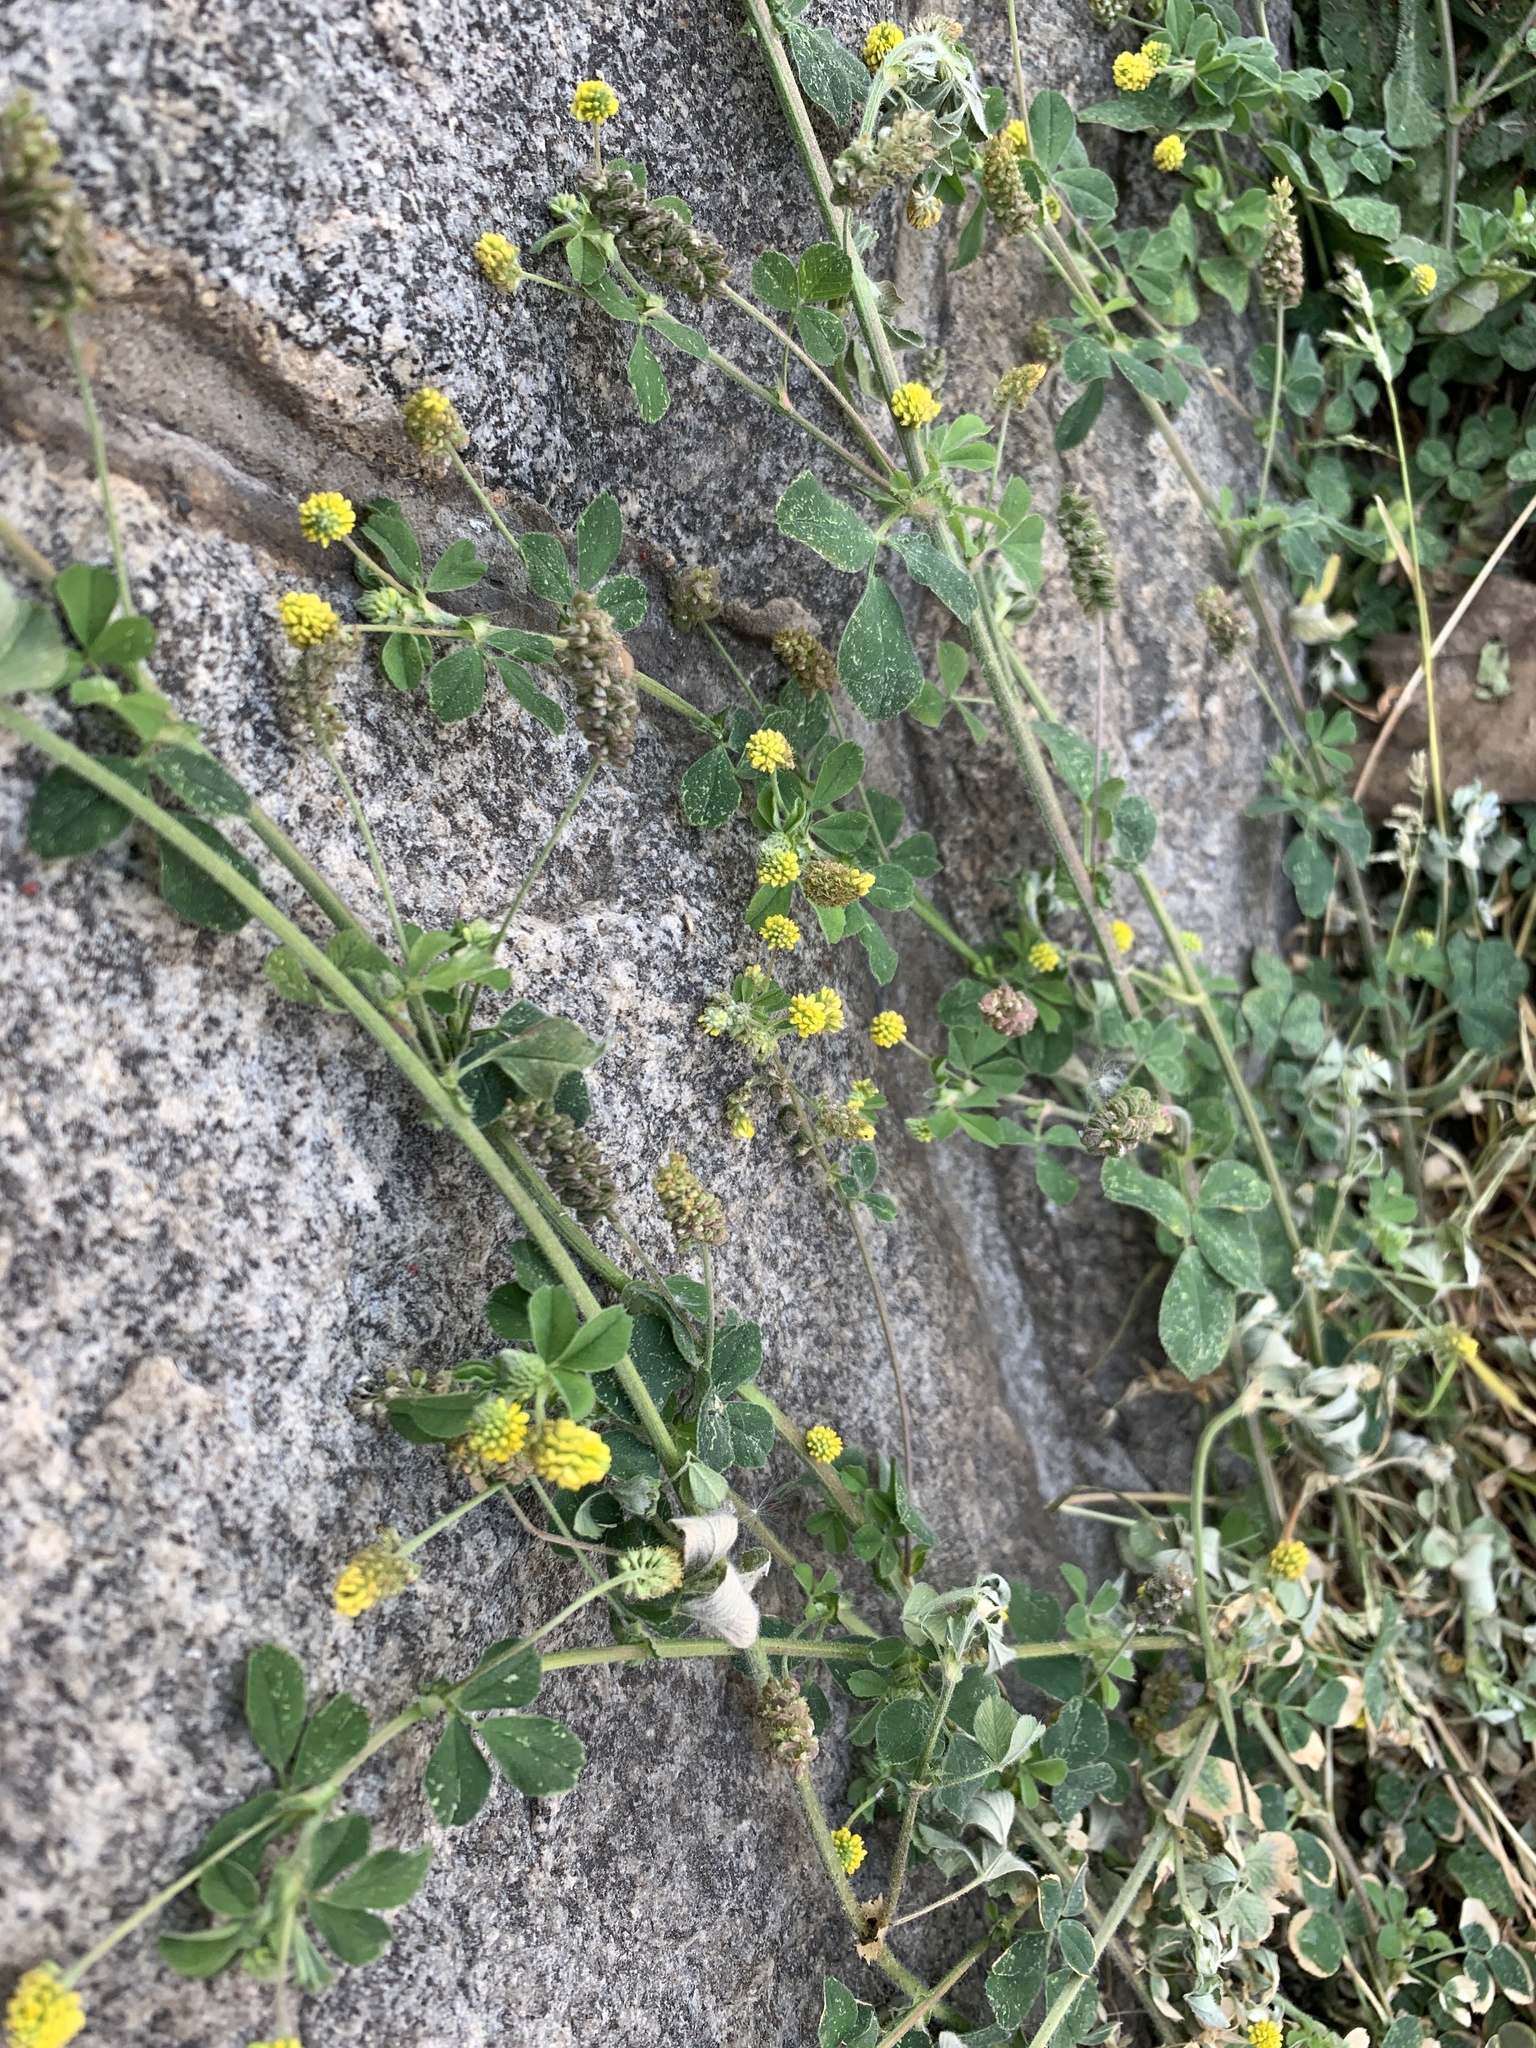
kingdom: Plantae
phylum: Tracheophyta
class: Magnoliopsida
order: Fabales
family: Fabaceae
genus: Medicago
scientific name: Medicago lupulina
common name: Black medick
